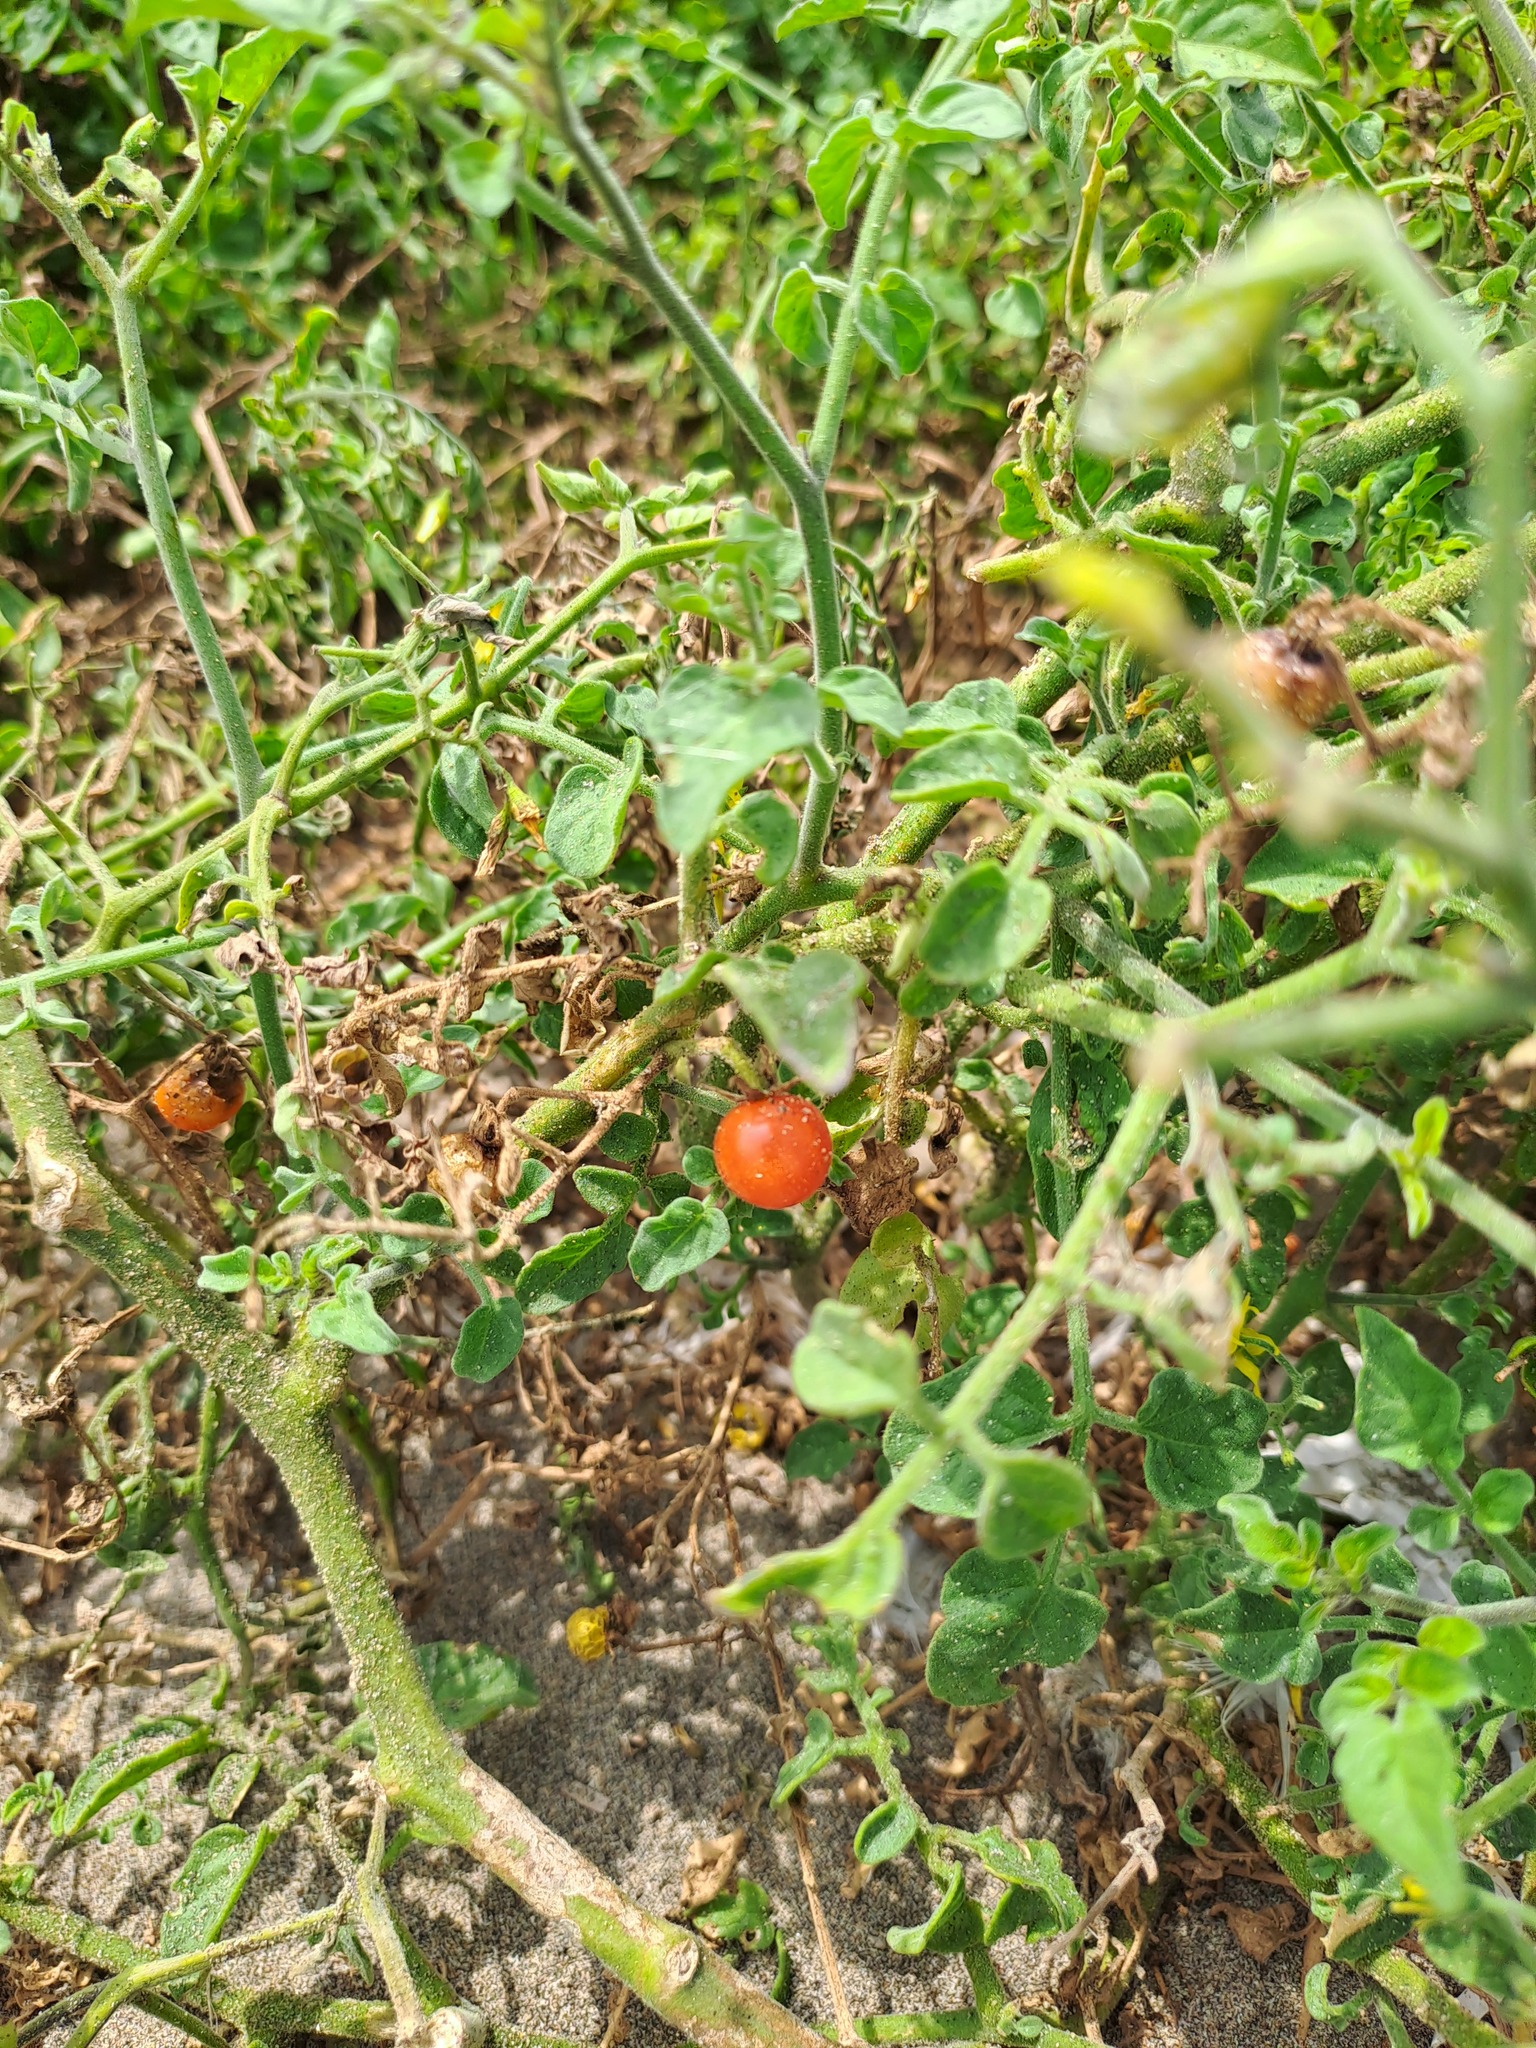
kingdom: Plantae
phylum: Tracheophyta
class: Magnoliopsida
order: Solanales
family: Solanaceae
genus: Solanum
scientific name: Solanum pimpinellifolium
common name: Currant-tomato
